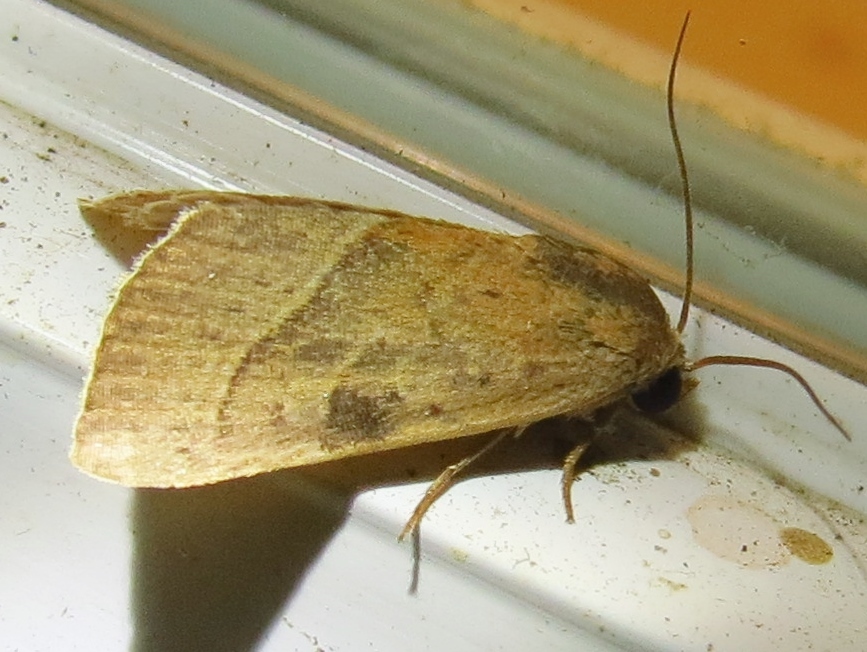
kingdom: Animalia
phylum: Arthropoda
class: Insecta
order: Lepidoptera
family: Noctuidae
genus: Galgula
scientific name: Galgula partita
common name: Wedgeling
